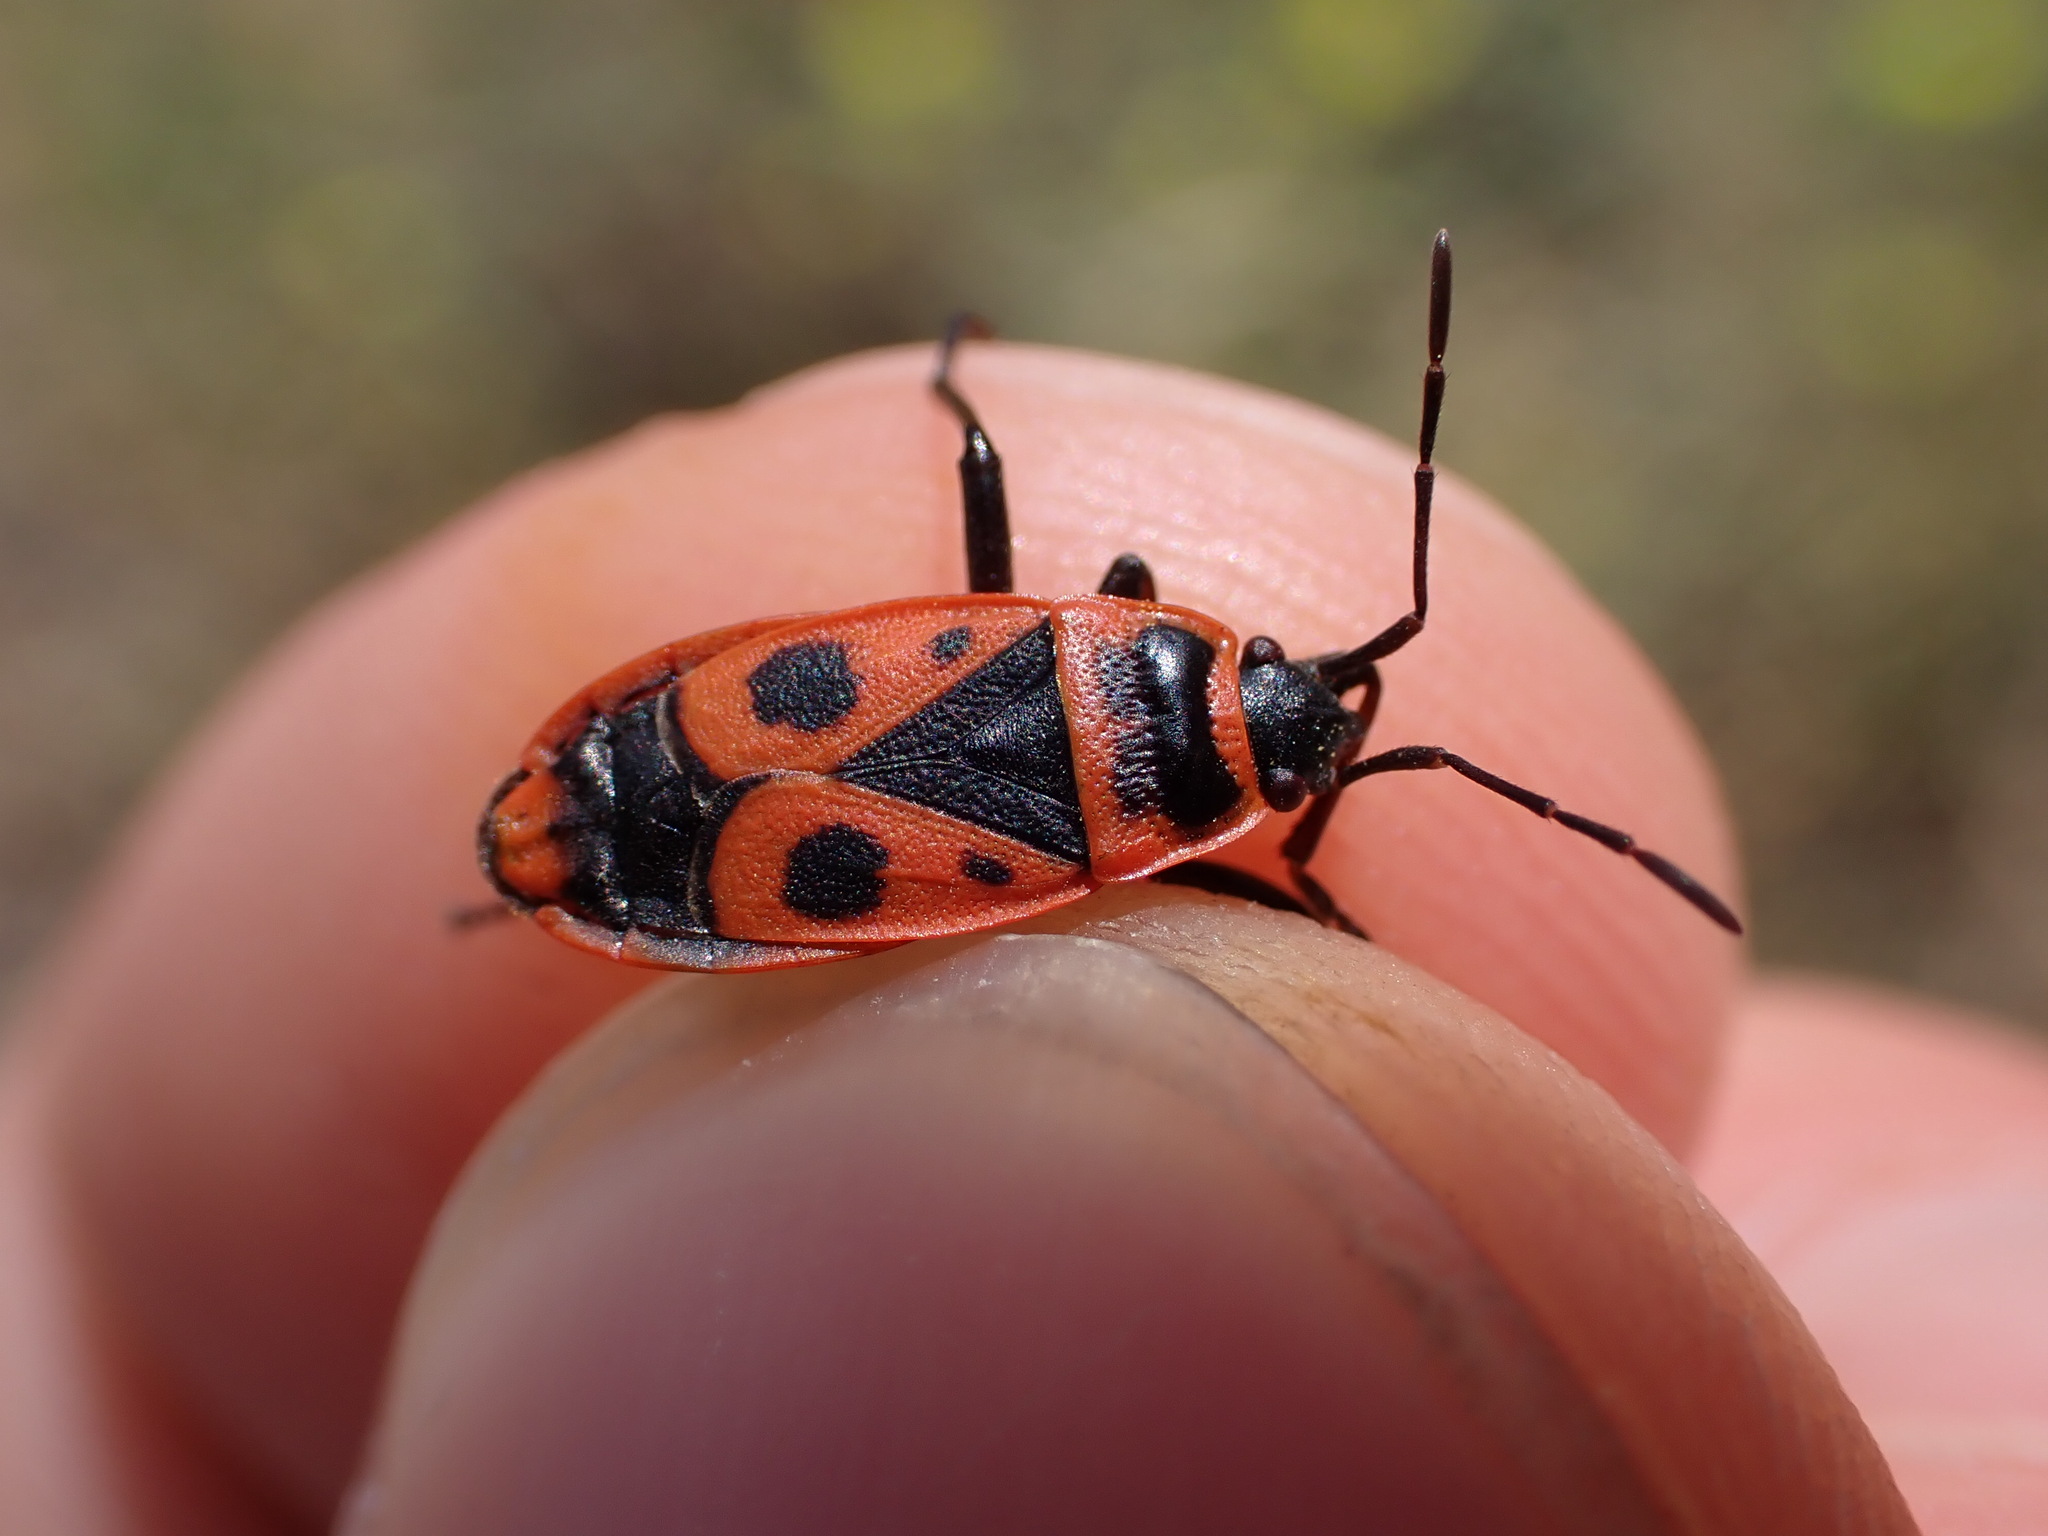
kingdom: Animalia
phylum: Arthropoda
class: Insecta
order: Hemiptera
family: Pyrrhocoridae
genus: Pyrrhocoris
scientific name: Pyrrhocoris apterus
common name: Firebug
